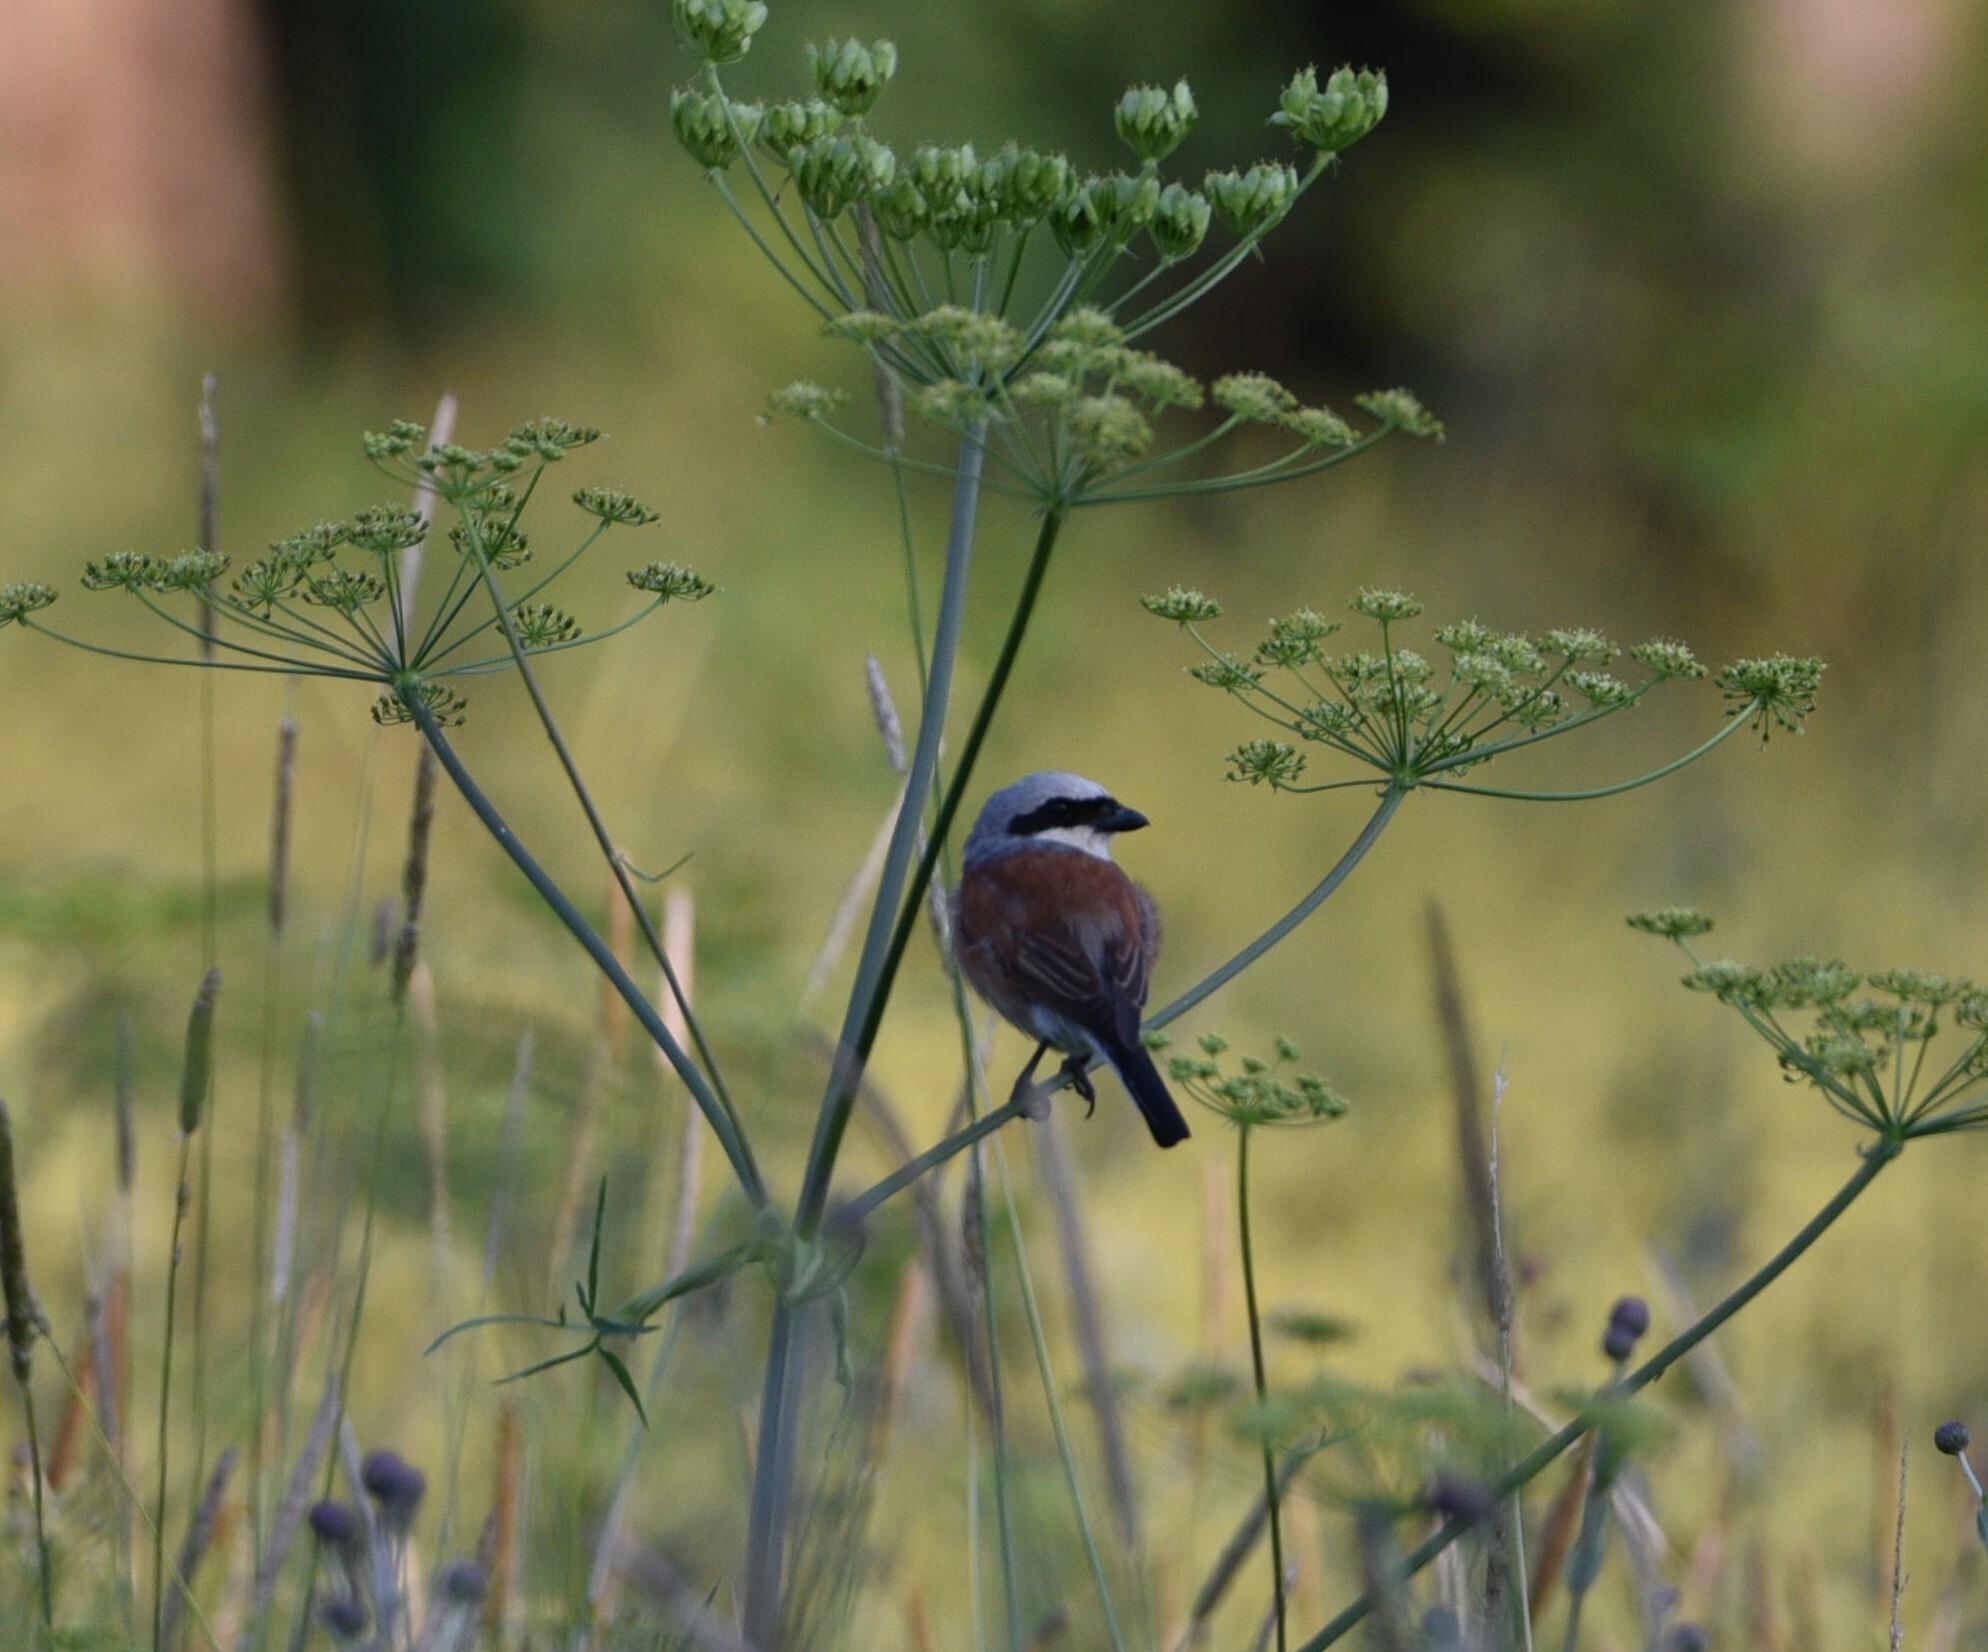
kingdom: Animalia
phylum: Chordata
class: Aves
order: Passeriformes
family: Laniidae
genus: Lanius
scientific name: Lanius collurio
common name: Red-backed shrike
